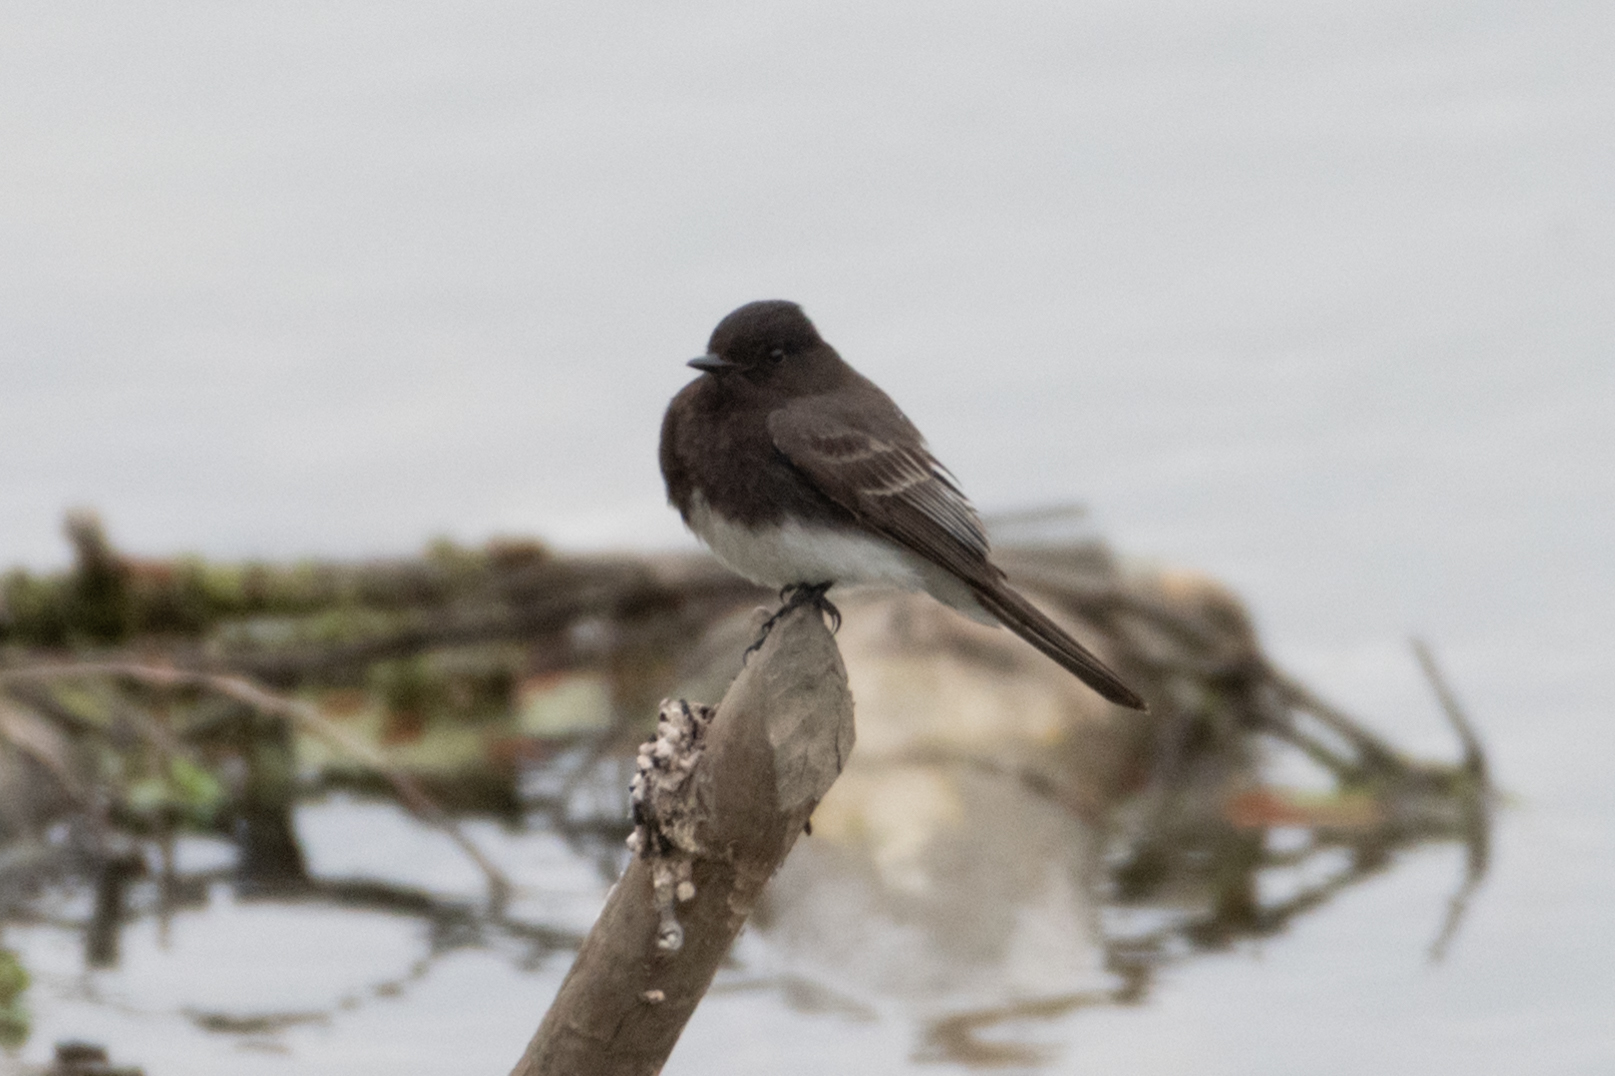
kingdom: Animalia
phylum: Chordata
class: Aves
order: Passeriformes
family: Tyrannidae
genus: Sayornis
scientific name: Sayornis nigricans
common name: Black phoebe
